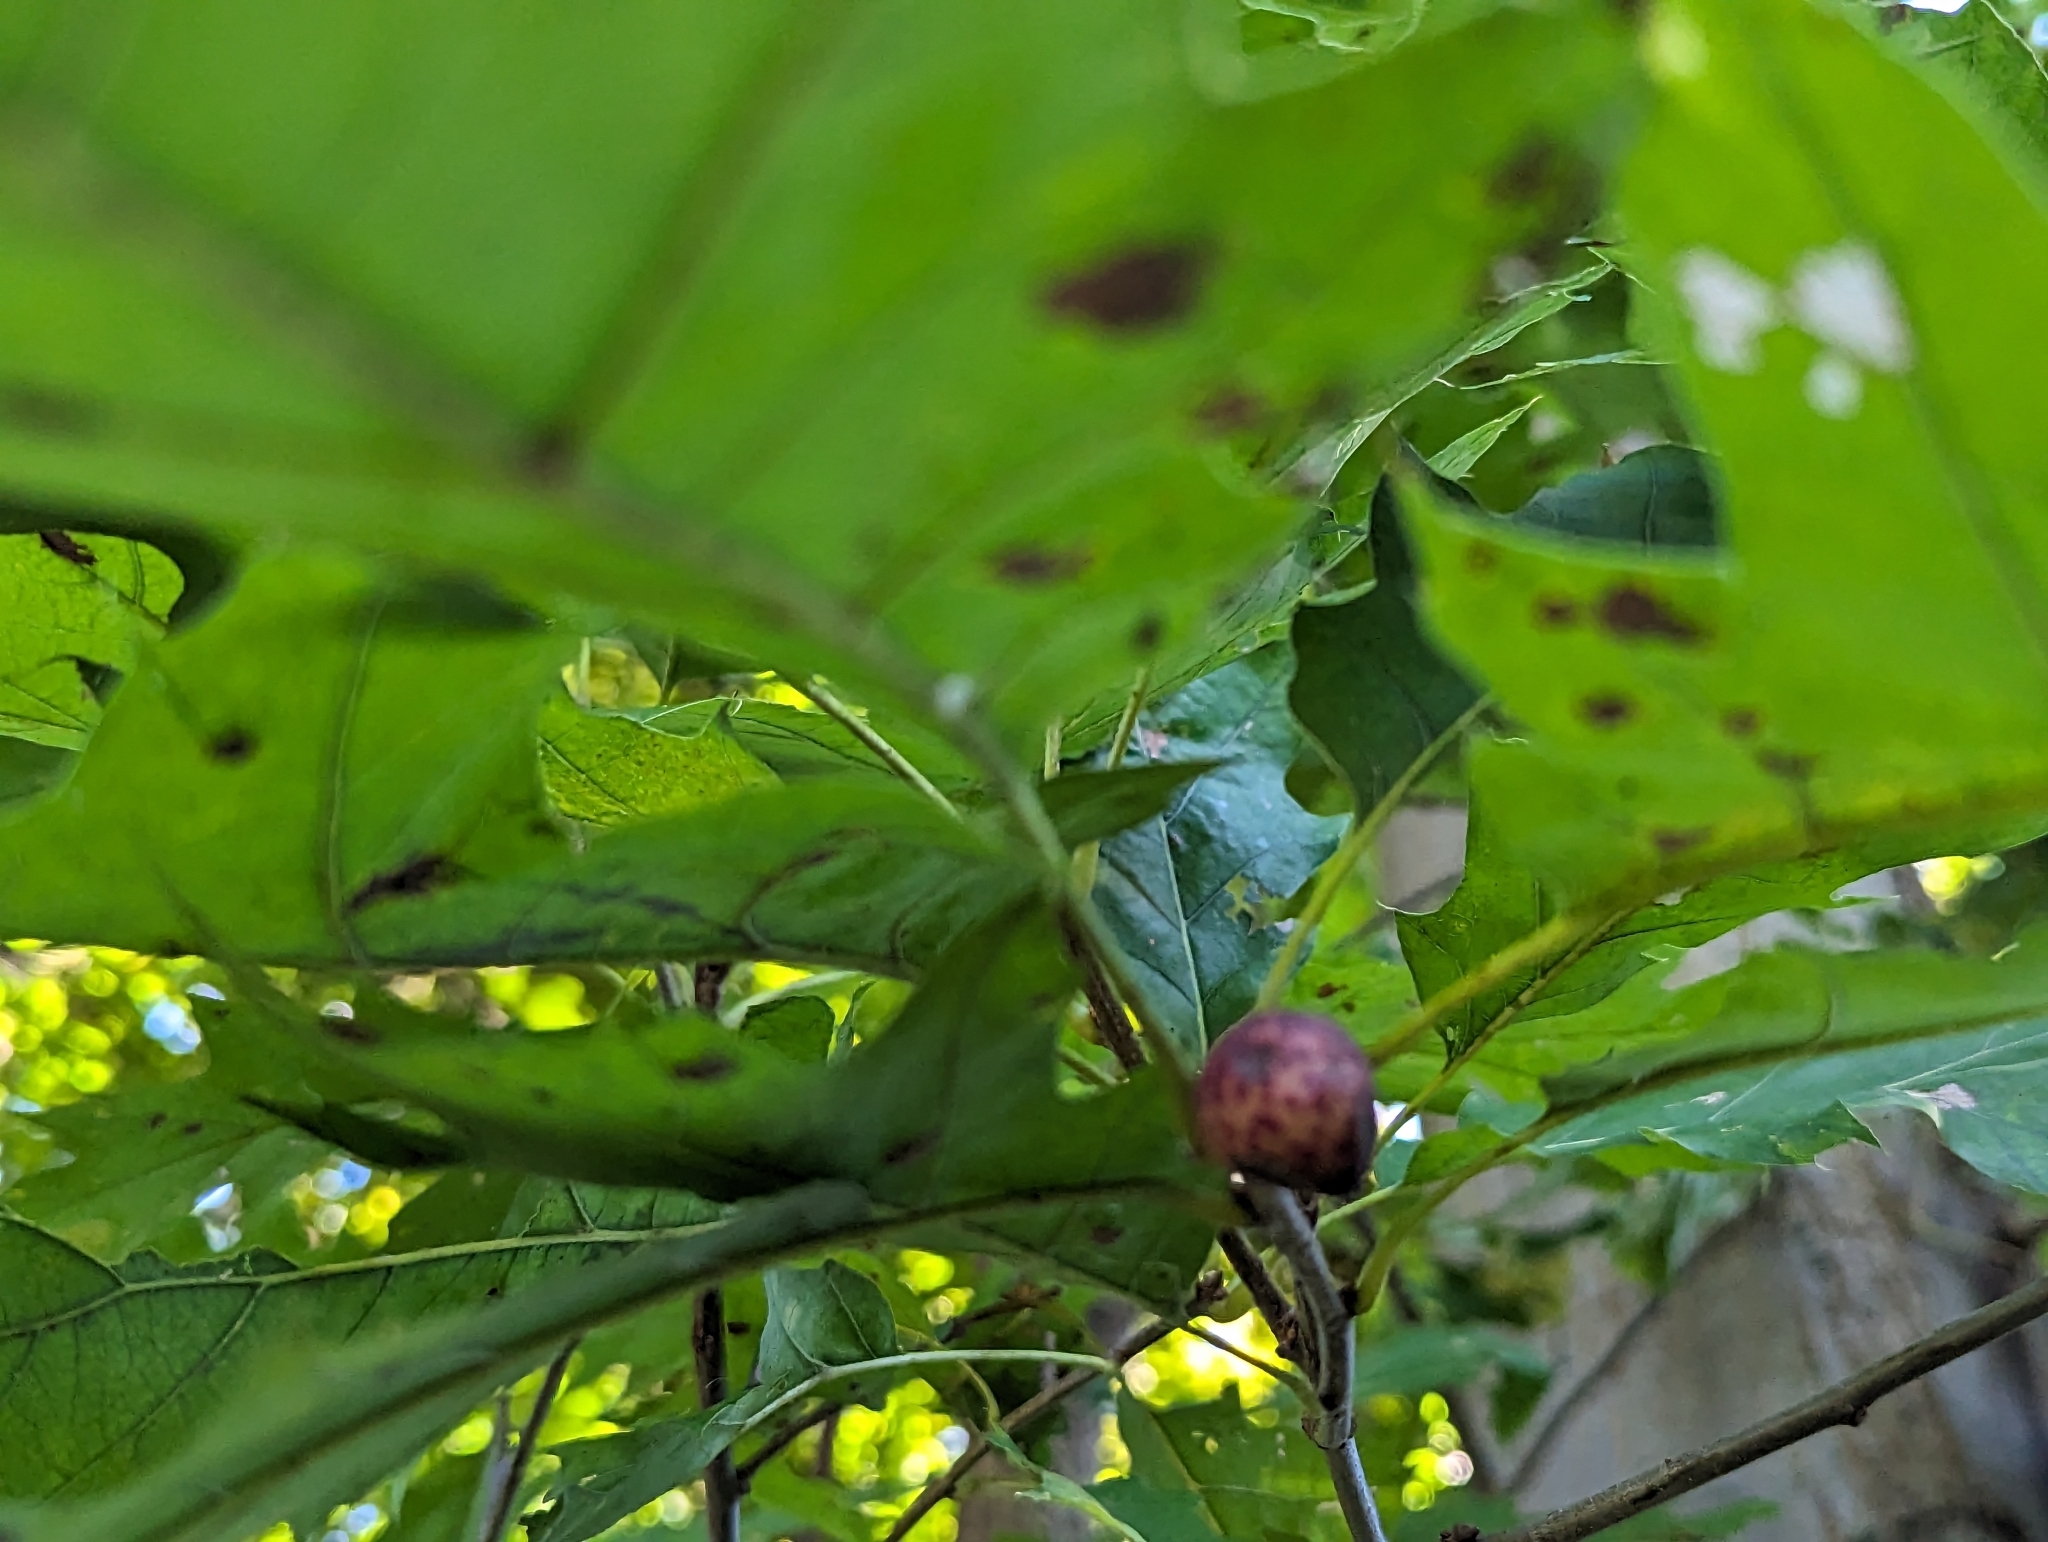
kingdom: Animalia
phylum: Arthropoda
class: Insecta
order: Hymenoptera
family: Cynipidae
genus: Amphibolips
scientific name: Amphibolips
